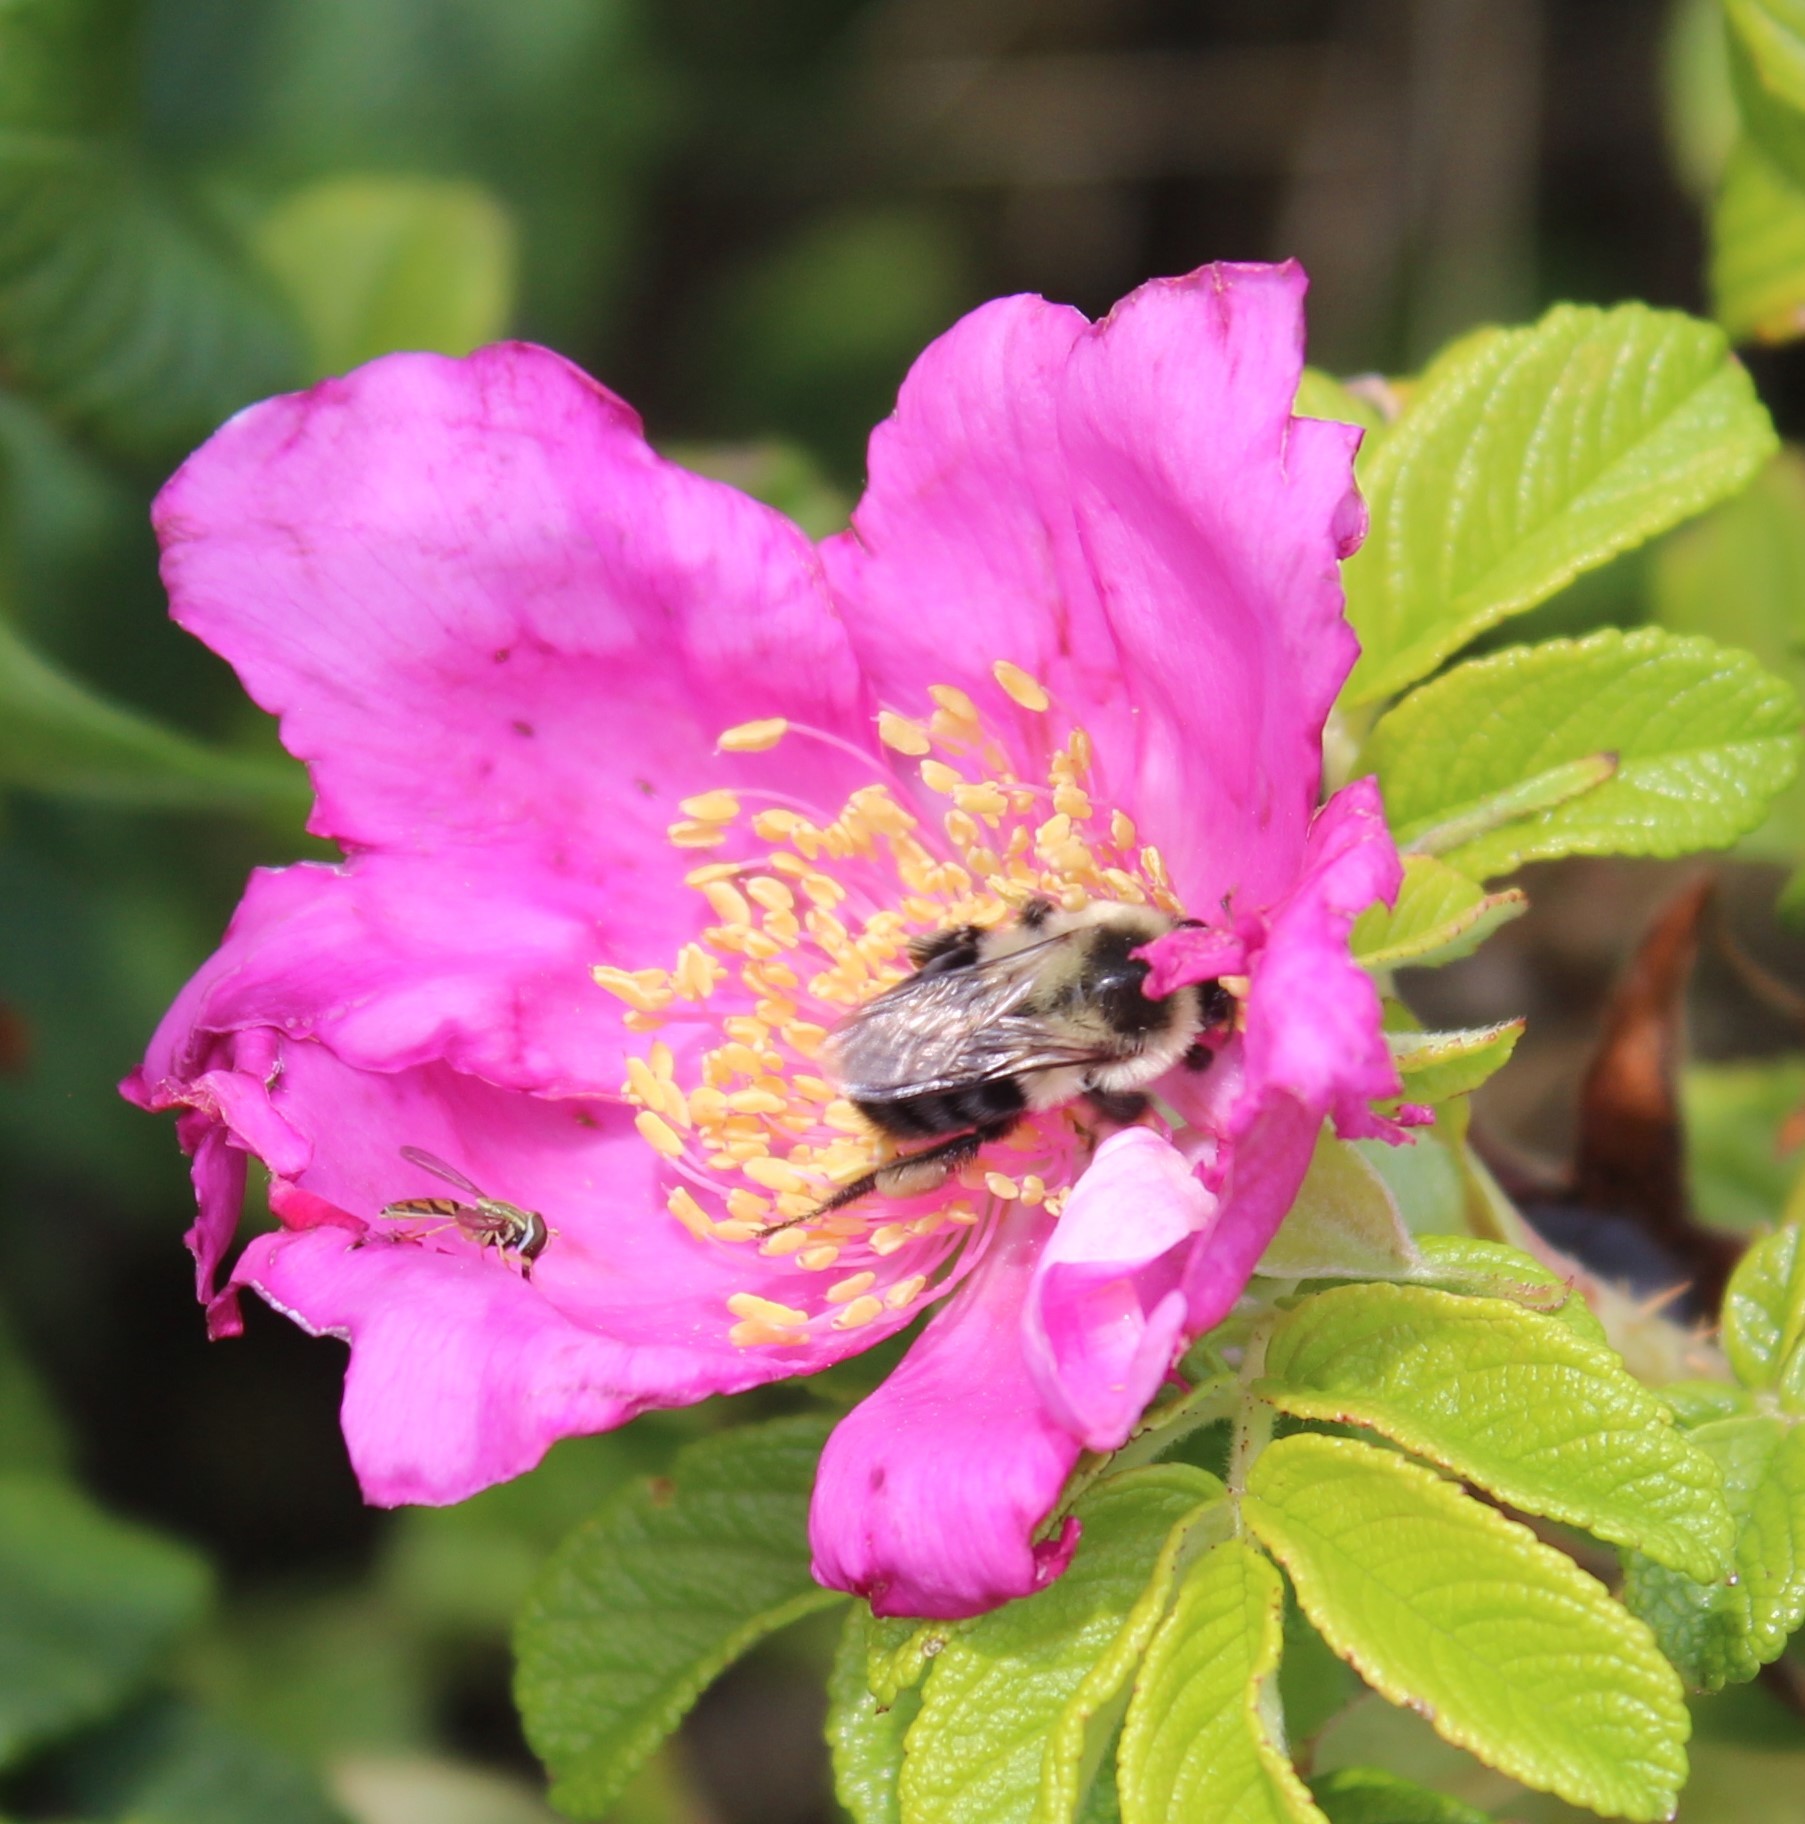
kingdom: Animalia
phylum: Arthropoda
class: Insecta
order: Hymenoptera
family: Apidae
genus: Bombus
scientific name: Bombus impatiens
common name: Common eastern bumble bee
